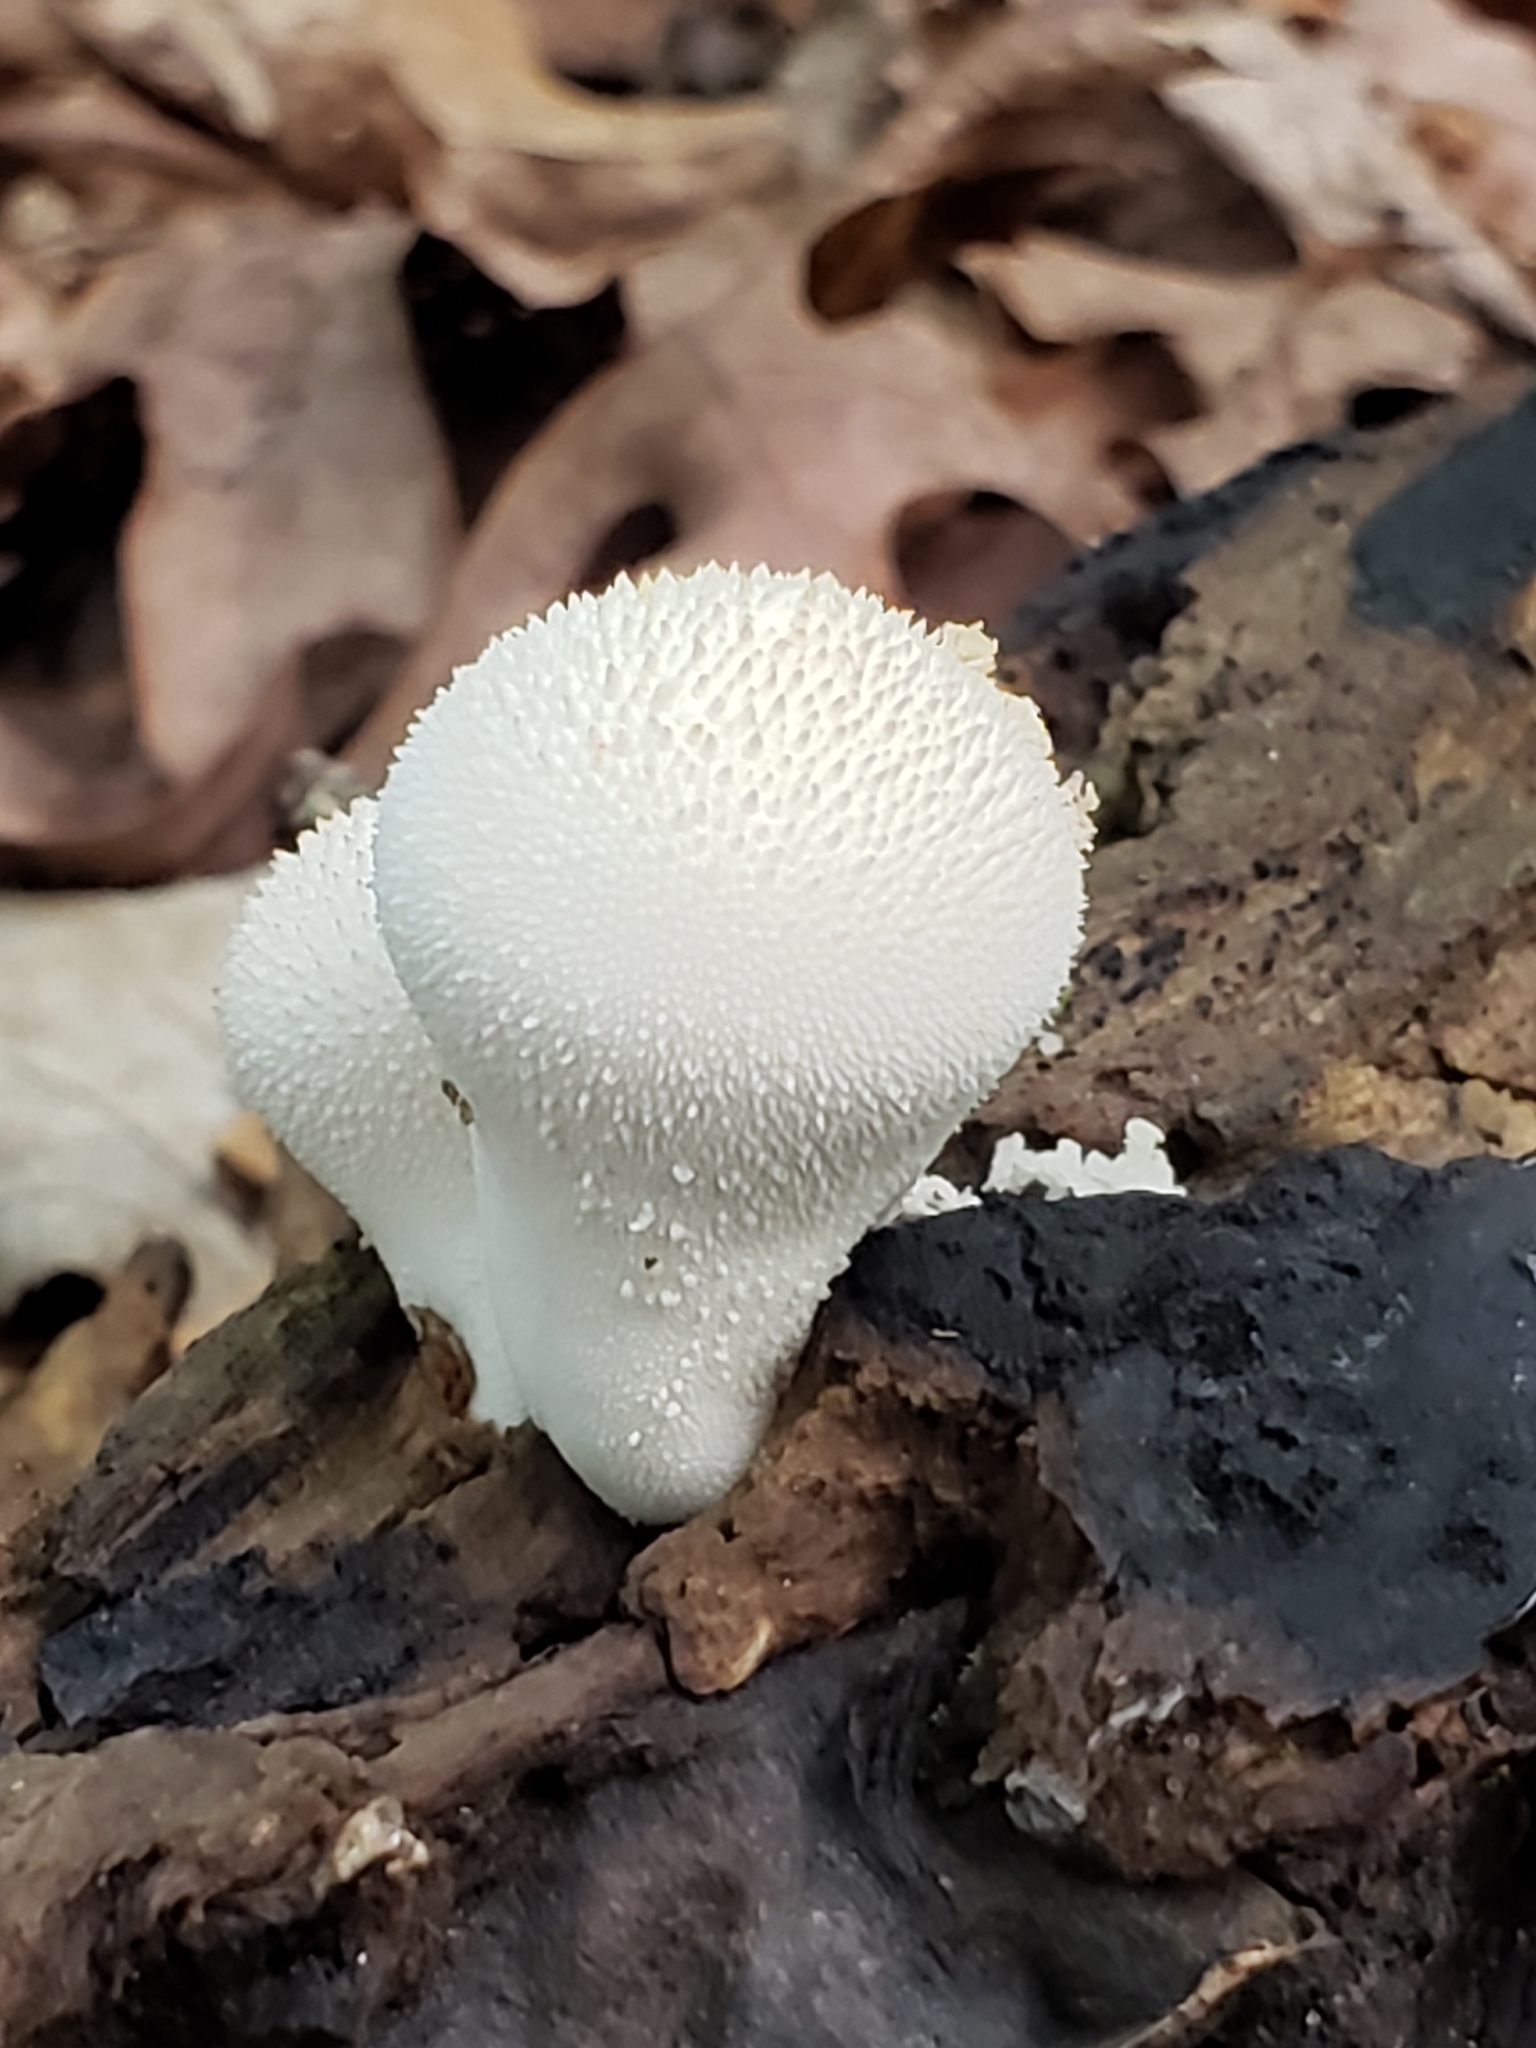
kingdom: Fungi
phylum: Basidiomycota
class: Agaricomycetes
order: Agaricales
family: Lycoperdaceae
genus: Lycoperdon
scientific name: Lycoperdon perlatum
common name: Common puffball
